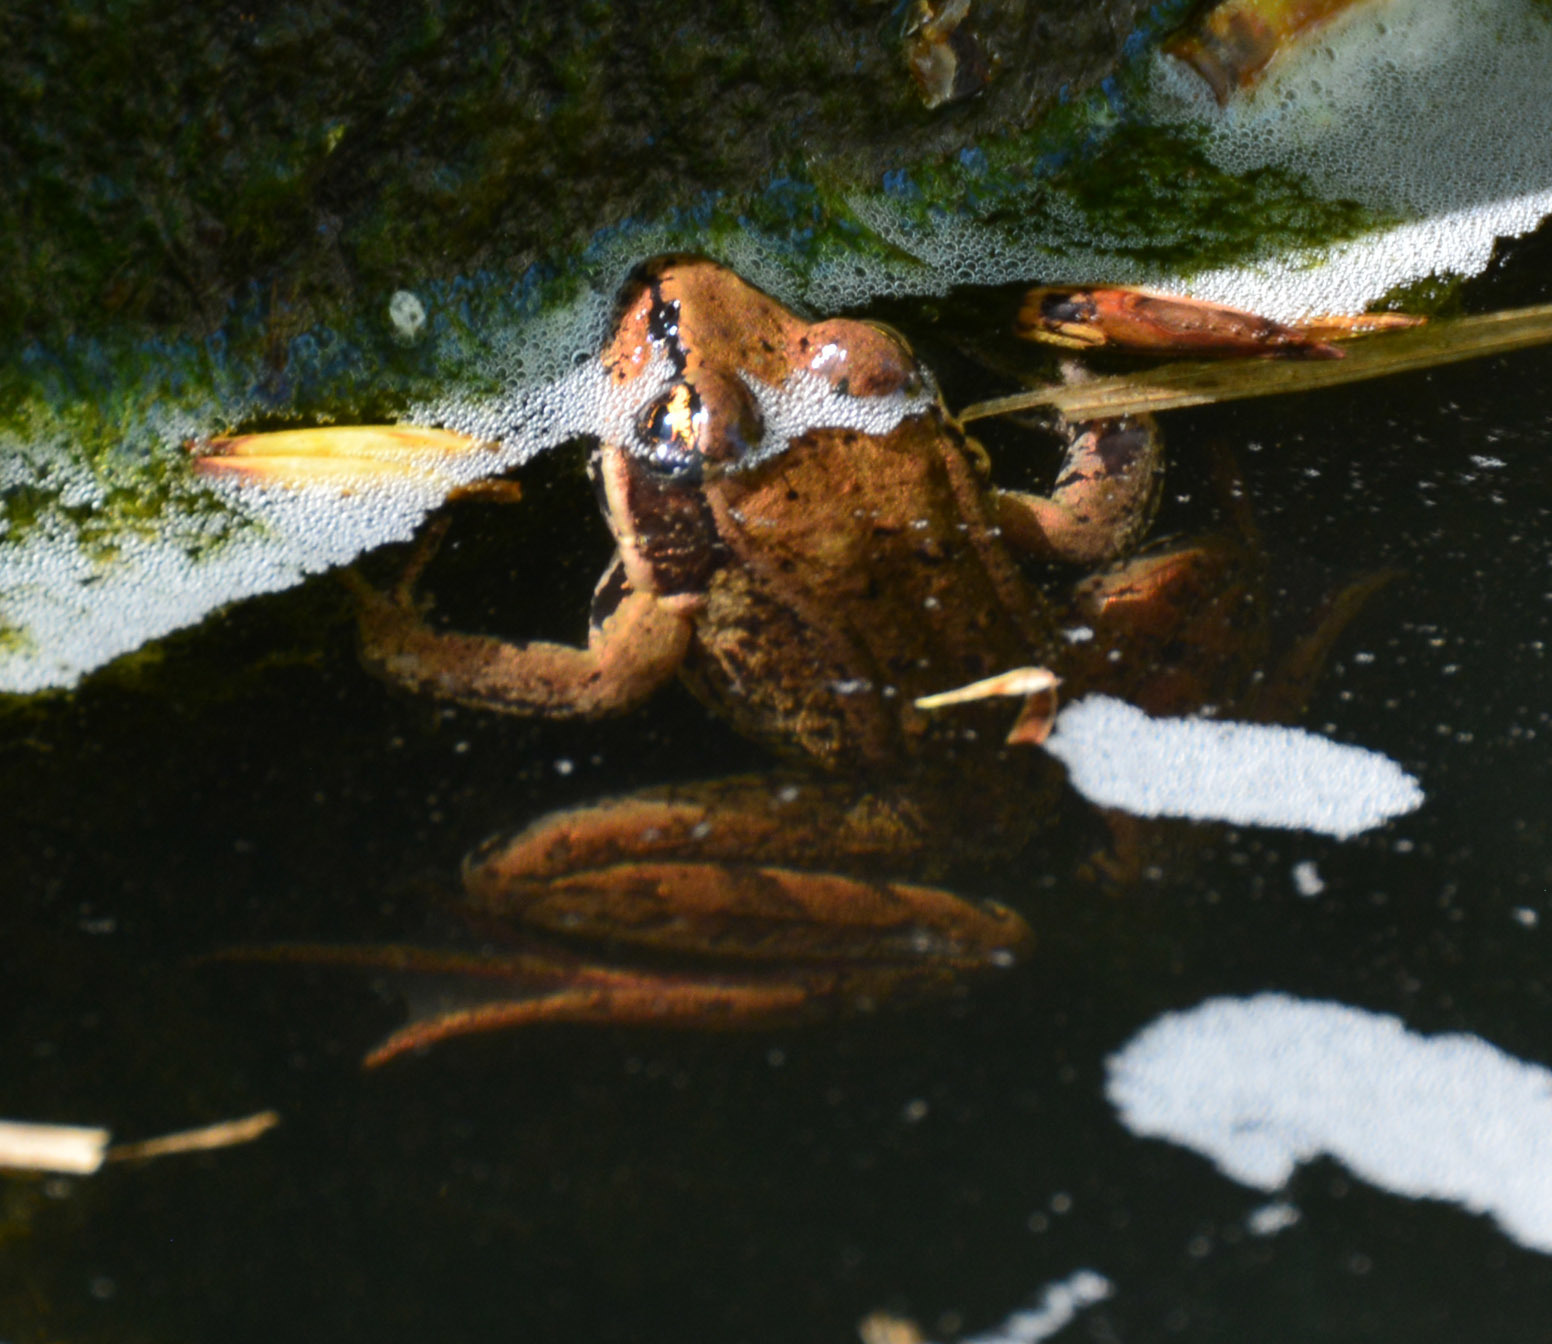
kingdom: Animalia
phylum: Chordata
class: Amphibia
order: Anura
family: Ranidae
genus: Rana
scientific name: Rana aurora
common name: Red-legged frog
